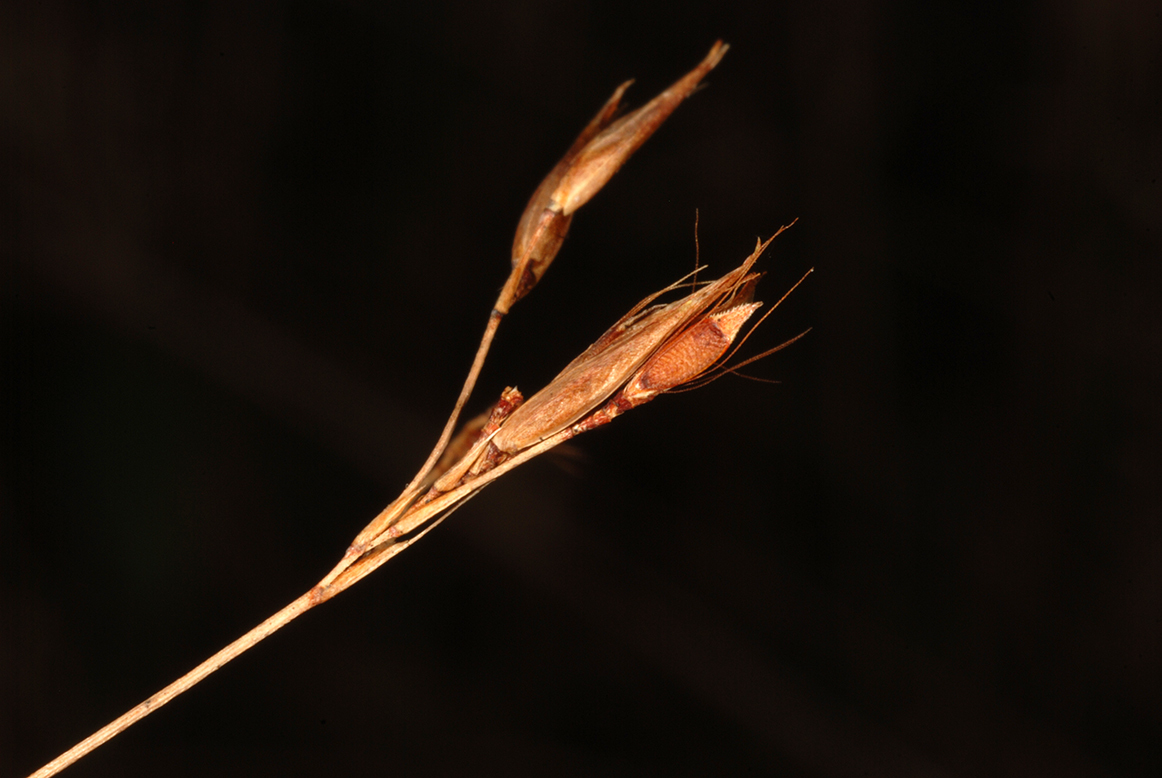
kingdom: Plantae
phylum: Tracheophyta
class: Liliopsida
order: Poales
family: Cyperaceae
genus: Rhynchospora
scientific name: Rhynchospora inexpansa
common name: Nodding beaksedge
